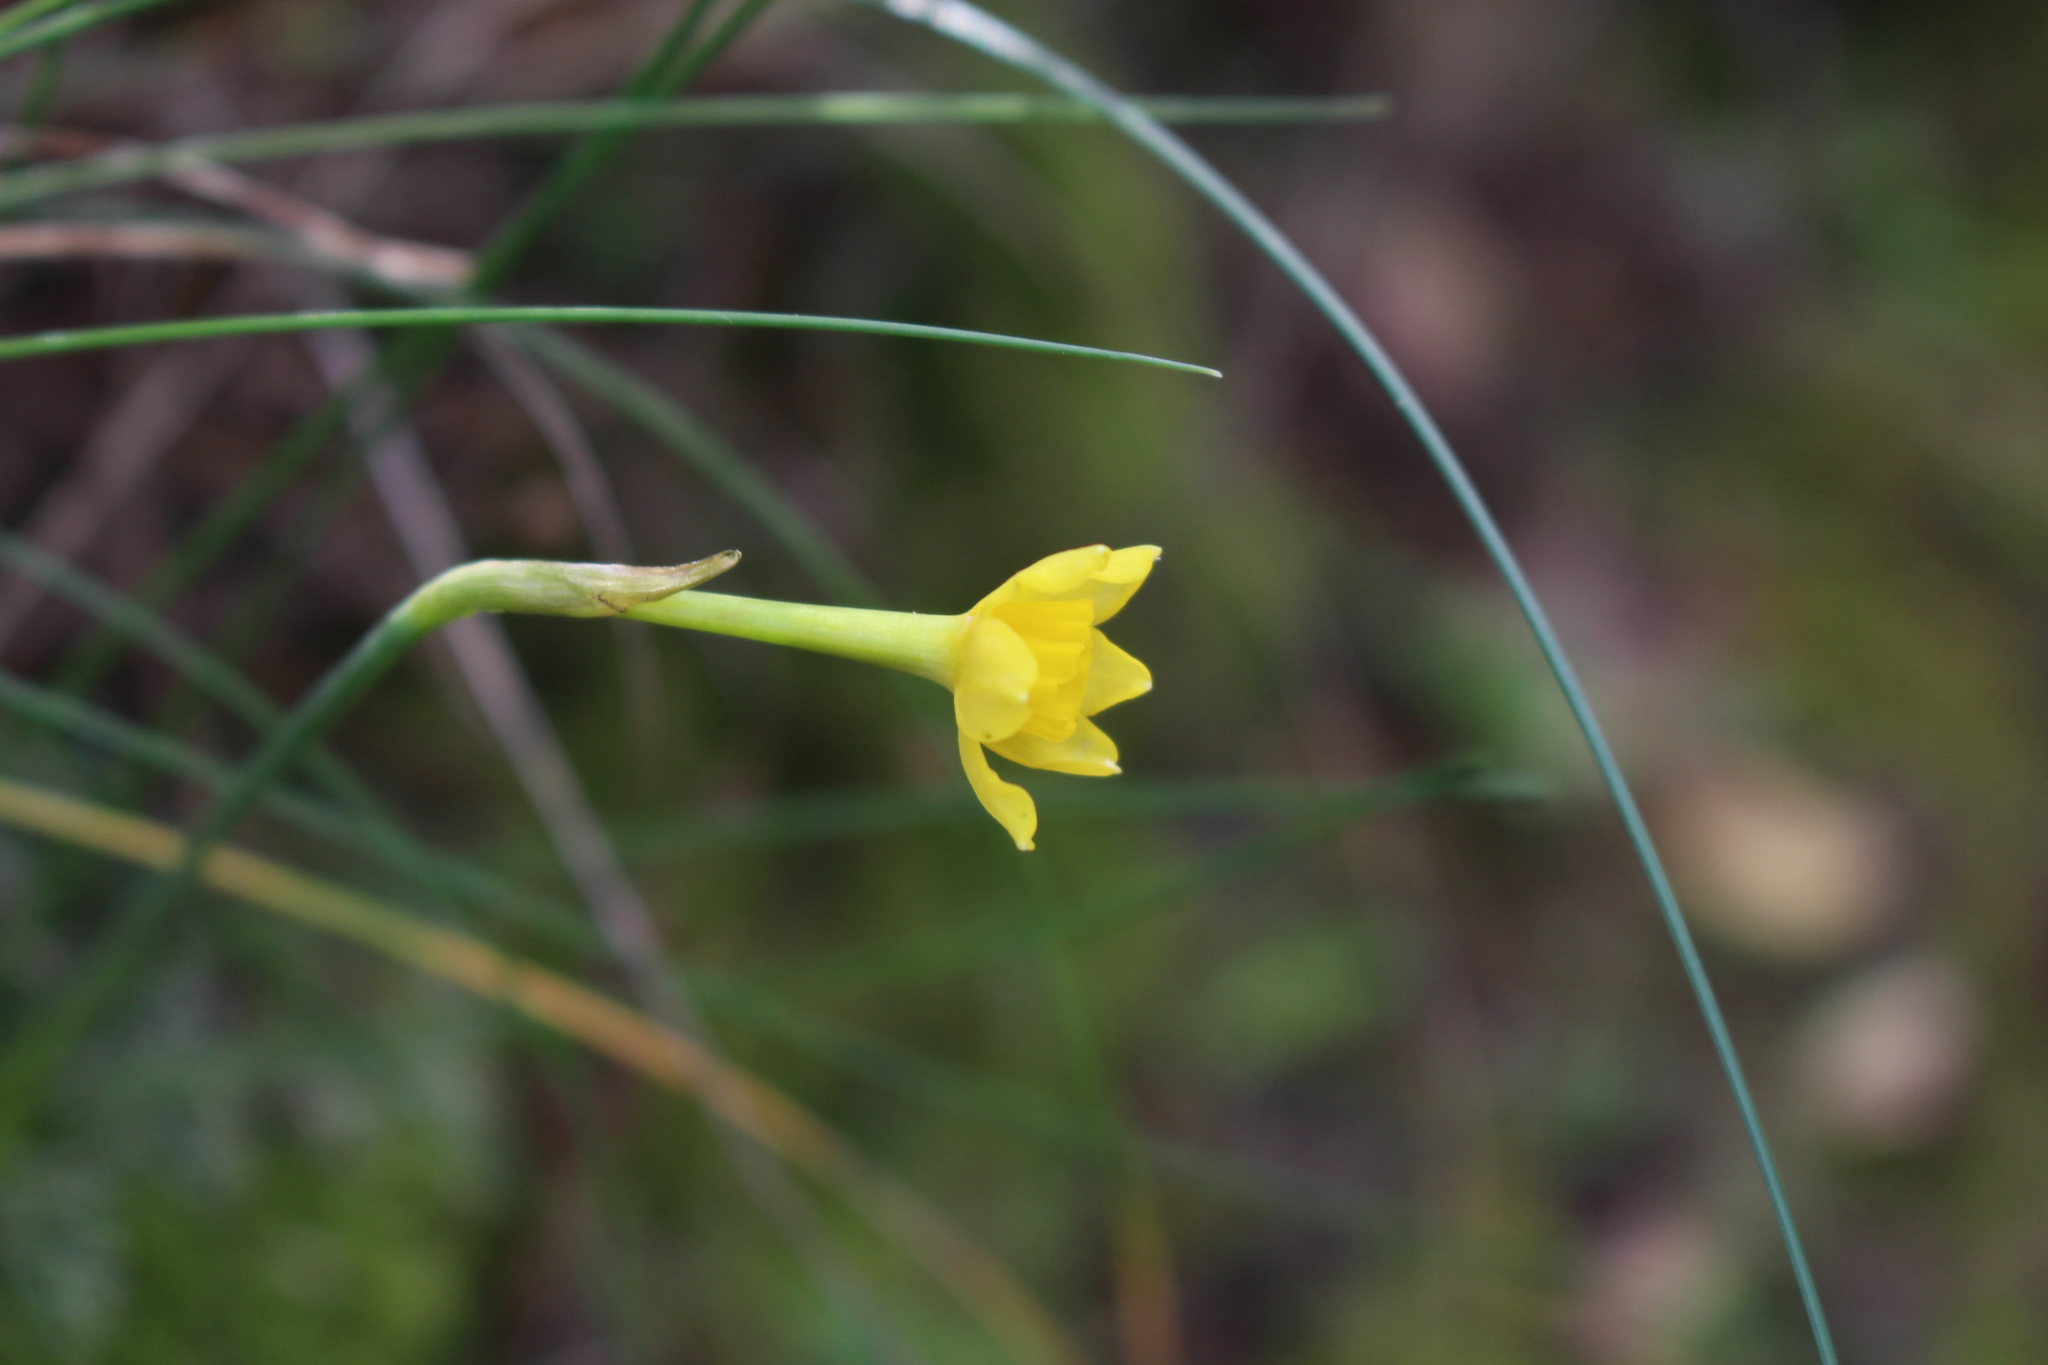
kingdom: Plantae
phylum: Tracheophyta
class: Liliopsida
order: Asparagales
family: Amaryllidaceae
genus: Narcissus
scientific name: Narcissus assoanus
